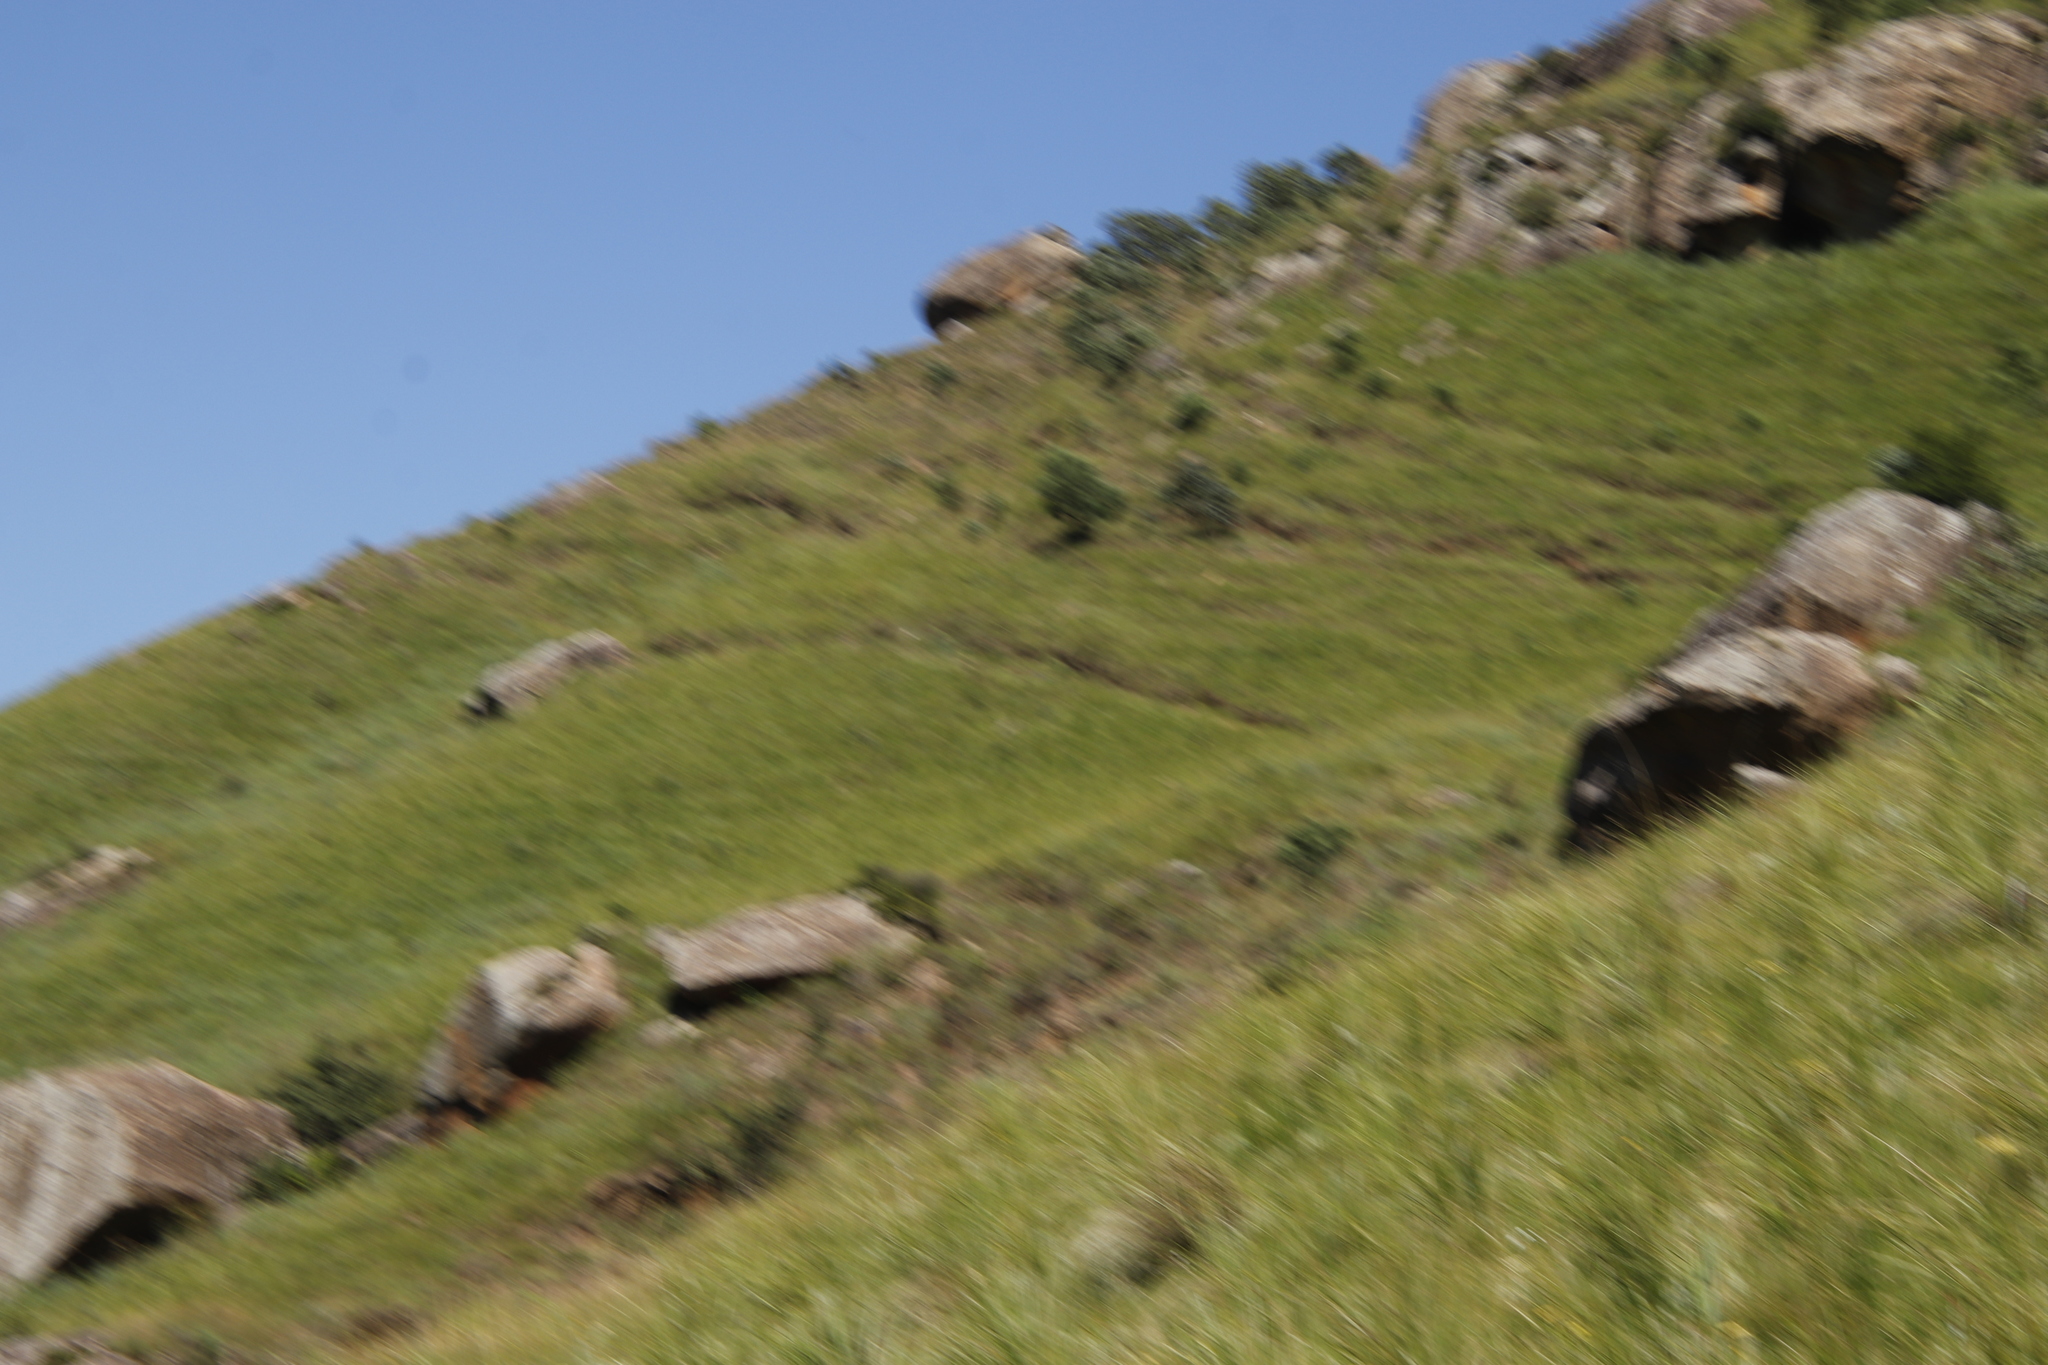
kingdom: Plantae
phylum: Tracheophyta
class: Magnoliopsida
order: Proteales
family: Proteaceae
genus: Protea
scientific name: Protea caffra
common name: Common sugarbush
